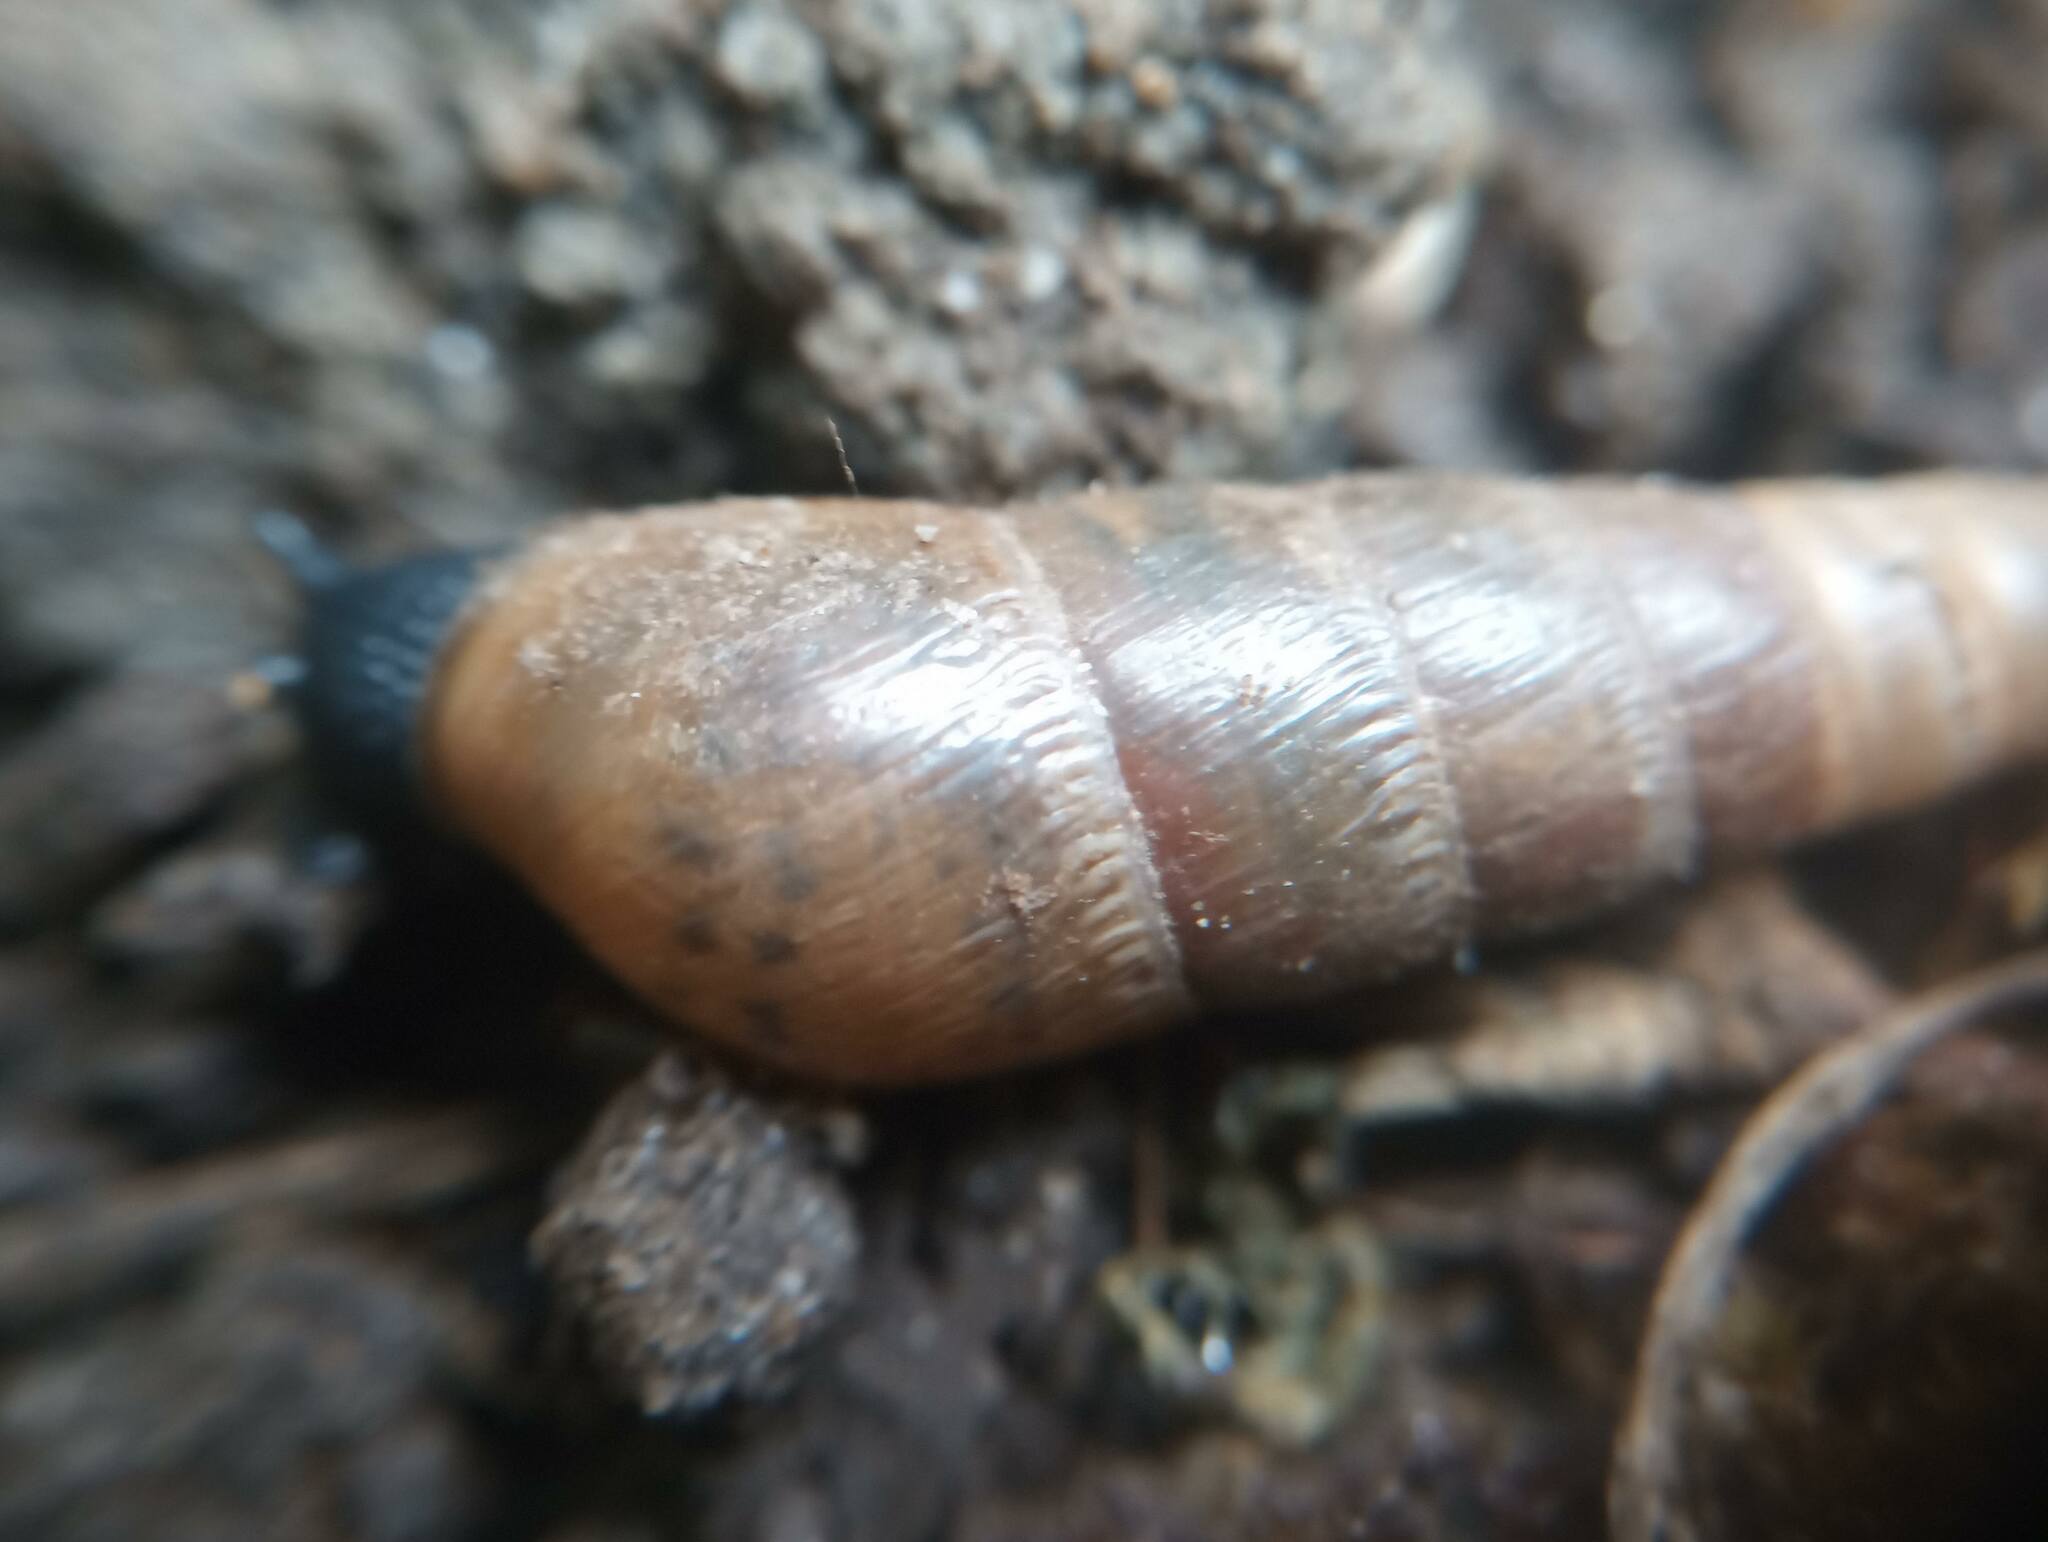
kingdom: Animalia
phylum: Mollusca
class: Gastropoda
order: Stylommatophora
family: Achatinidae
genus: Rumina
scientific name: Rumina decollata
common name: Decollate snail
